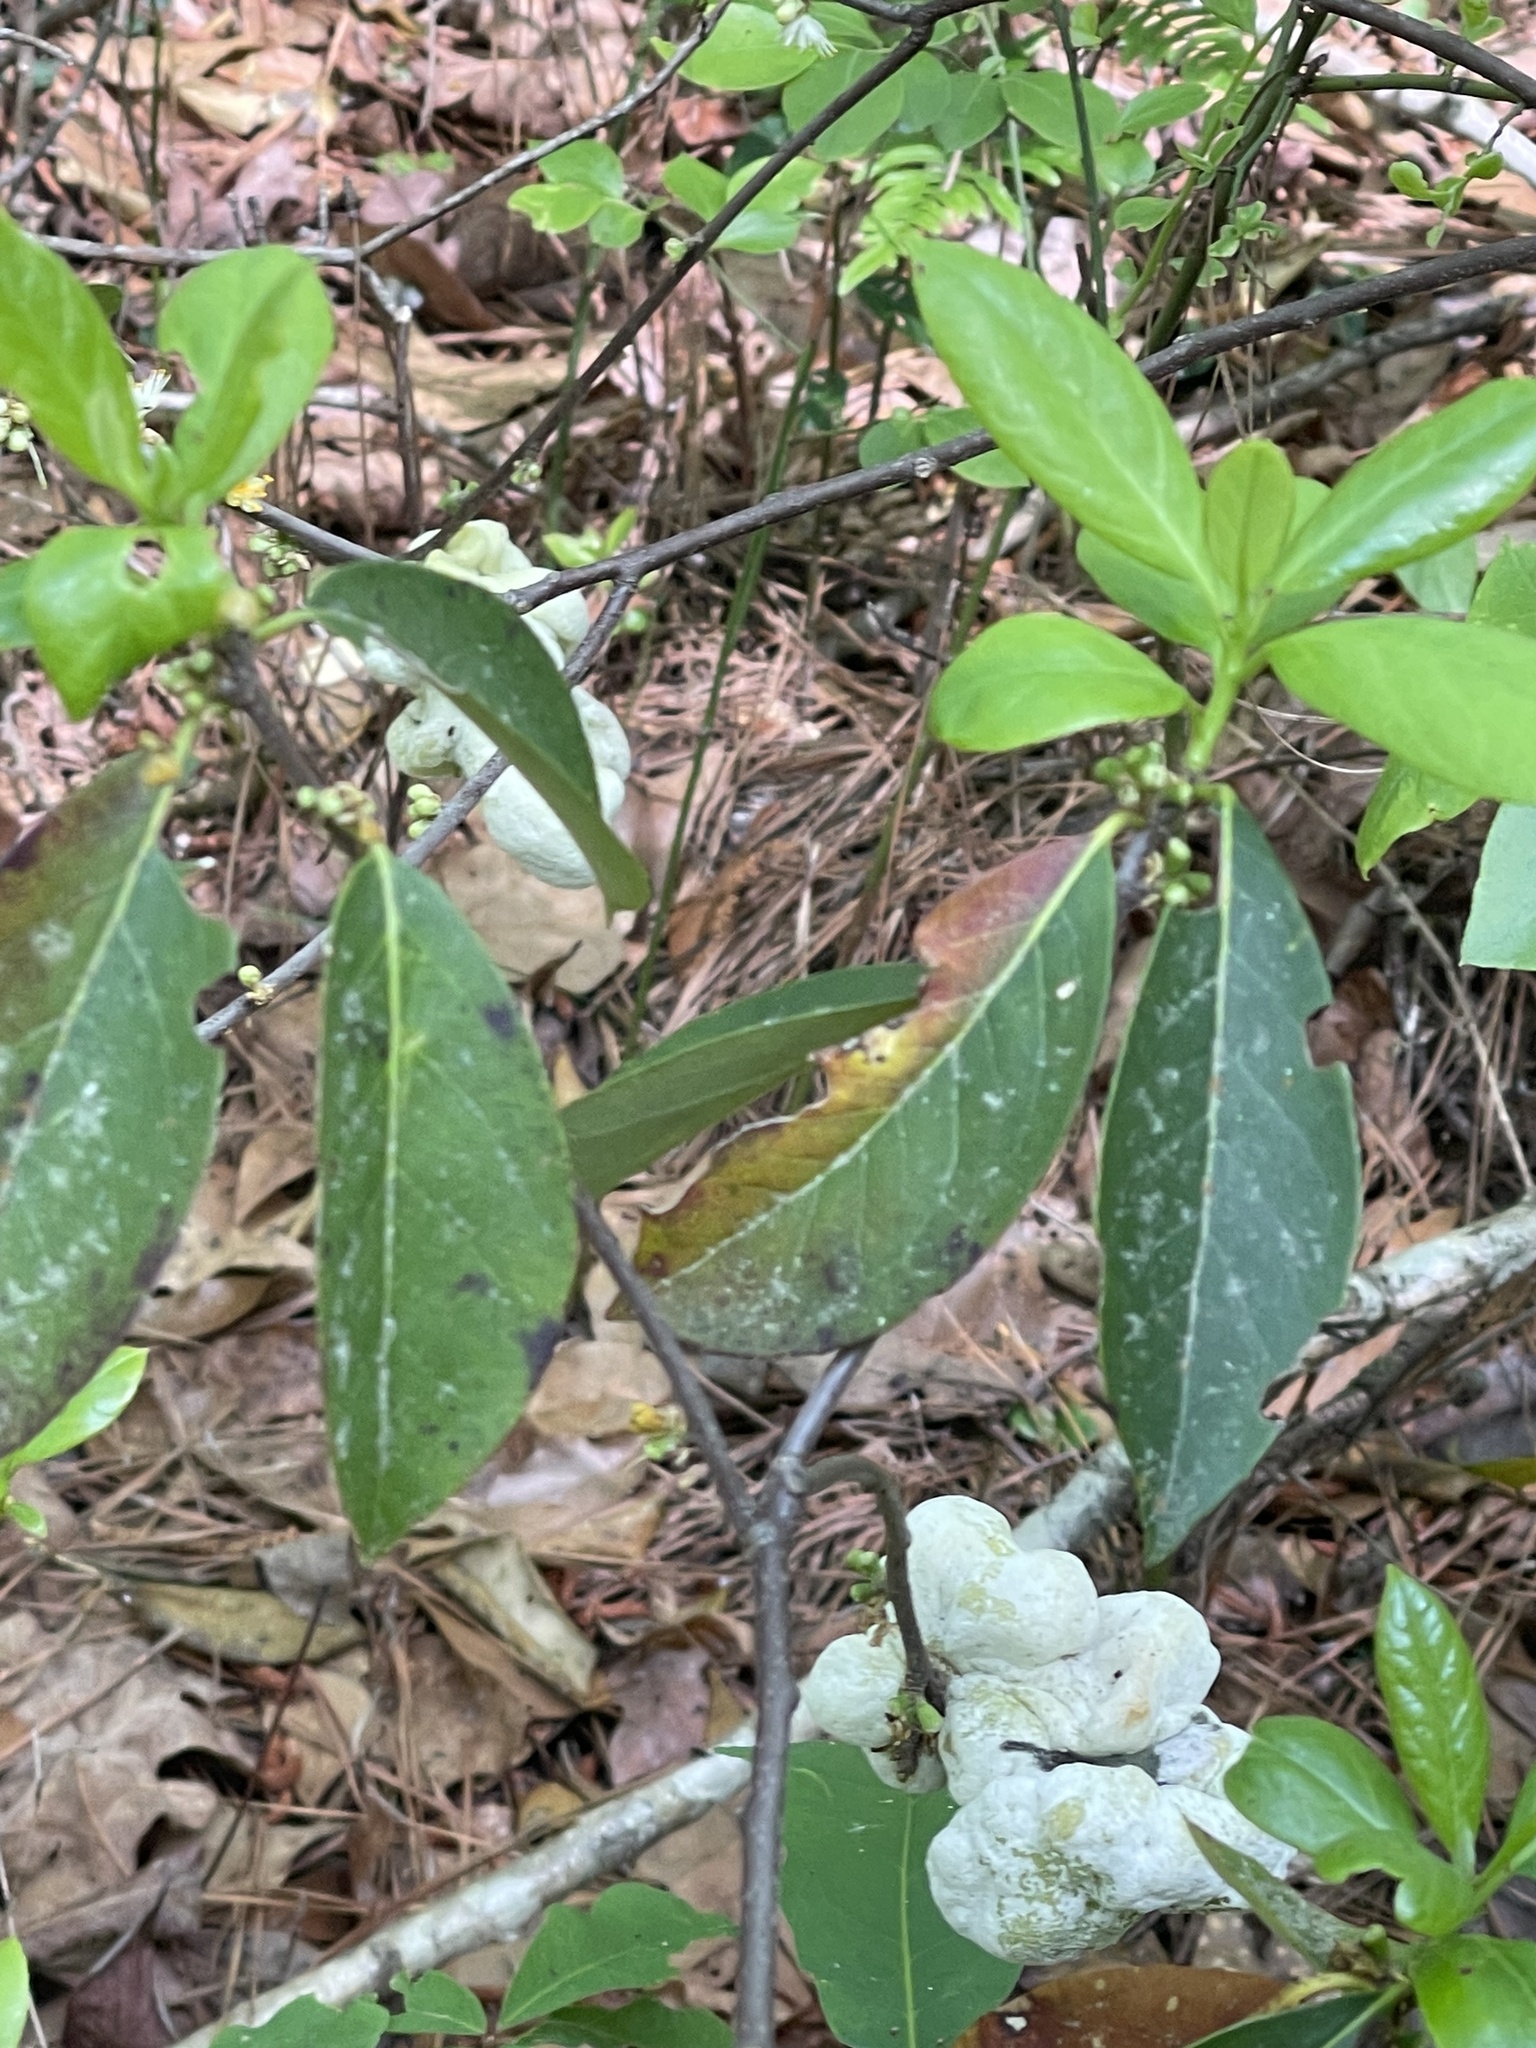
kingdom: Fungi
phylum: Basidiomycota
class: Exobasidiomycetes
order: Exobasidiales
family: Exobasidiaceae
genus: Exobasidium
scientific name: Exobasidium symploci
